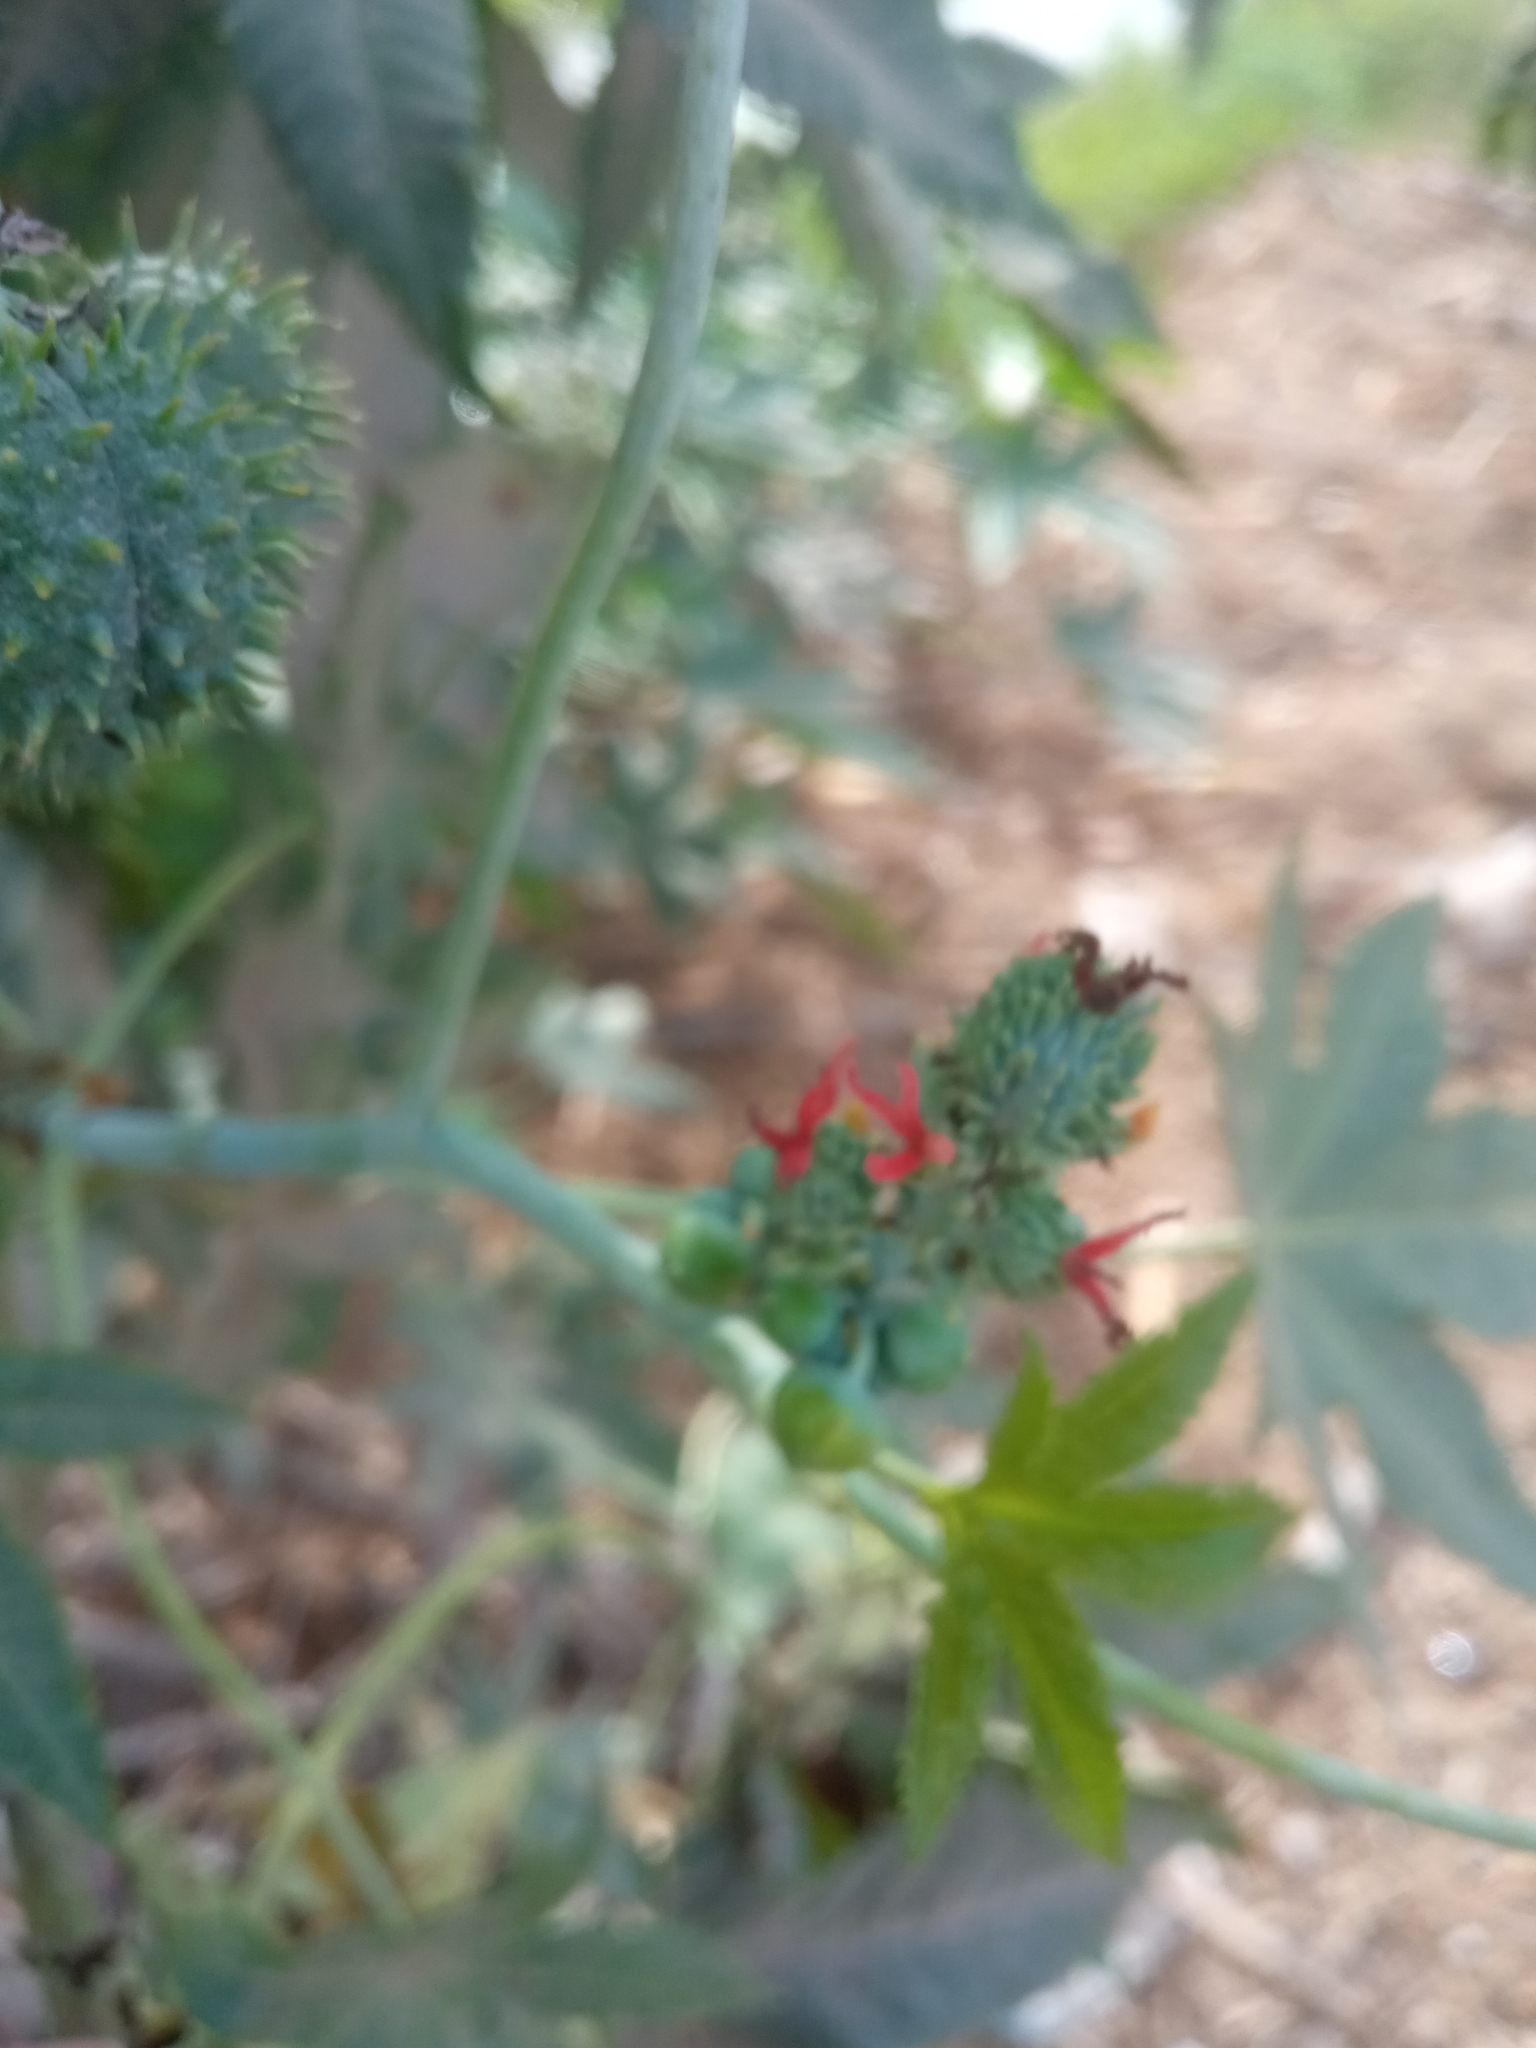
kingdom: Plantae
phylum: Tracheophyta
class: Magnoliopsida
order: Malpighiales
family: Euphorbiaceae
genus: Ricinus
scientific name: Ricinus communis
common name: Castor-oil-plant
